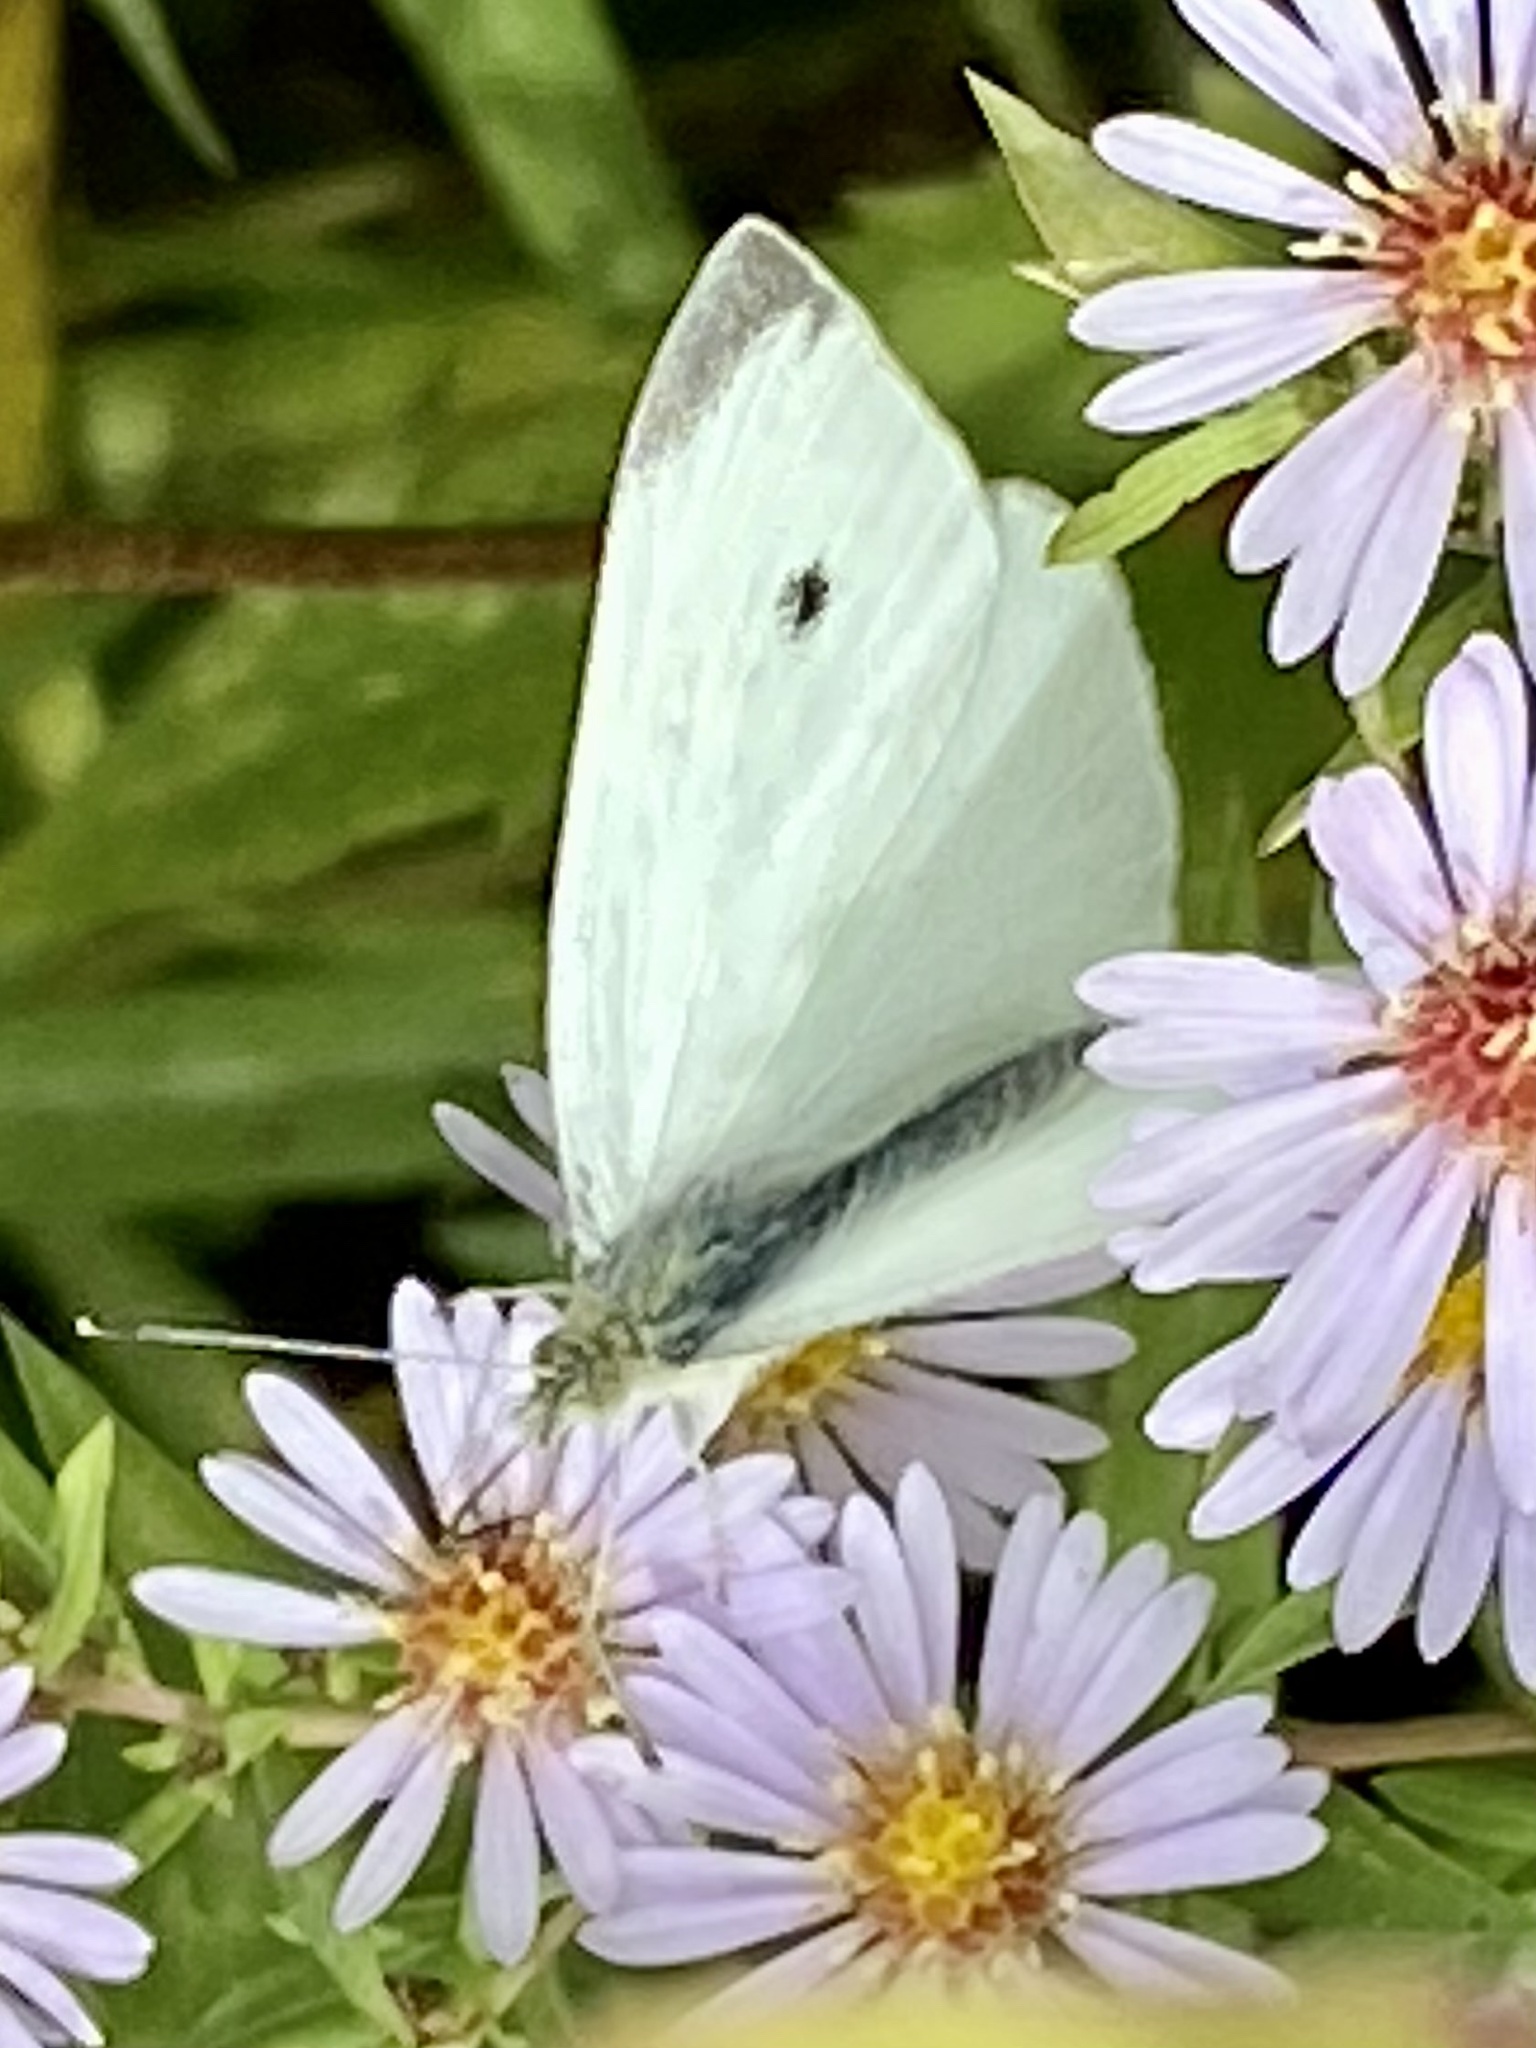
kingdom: Animalia
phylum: Arthropoda
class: Insecta
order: Lepidoptera
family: Pieridae
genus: Pieris
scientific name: Pieris rapae
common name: Small white
